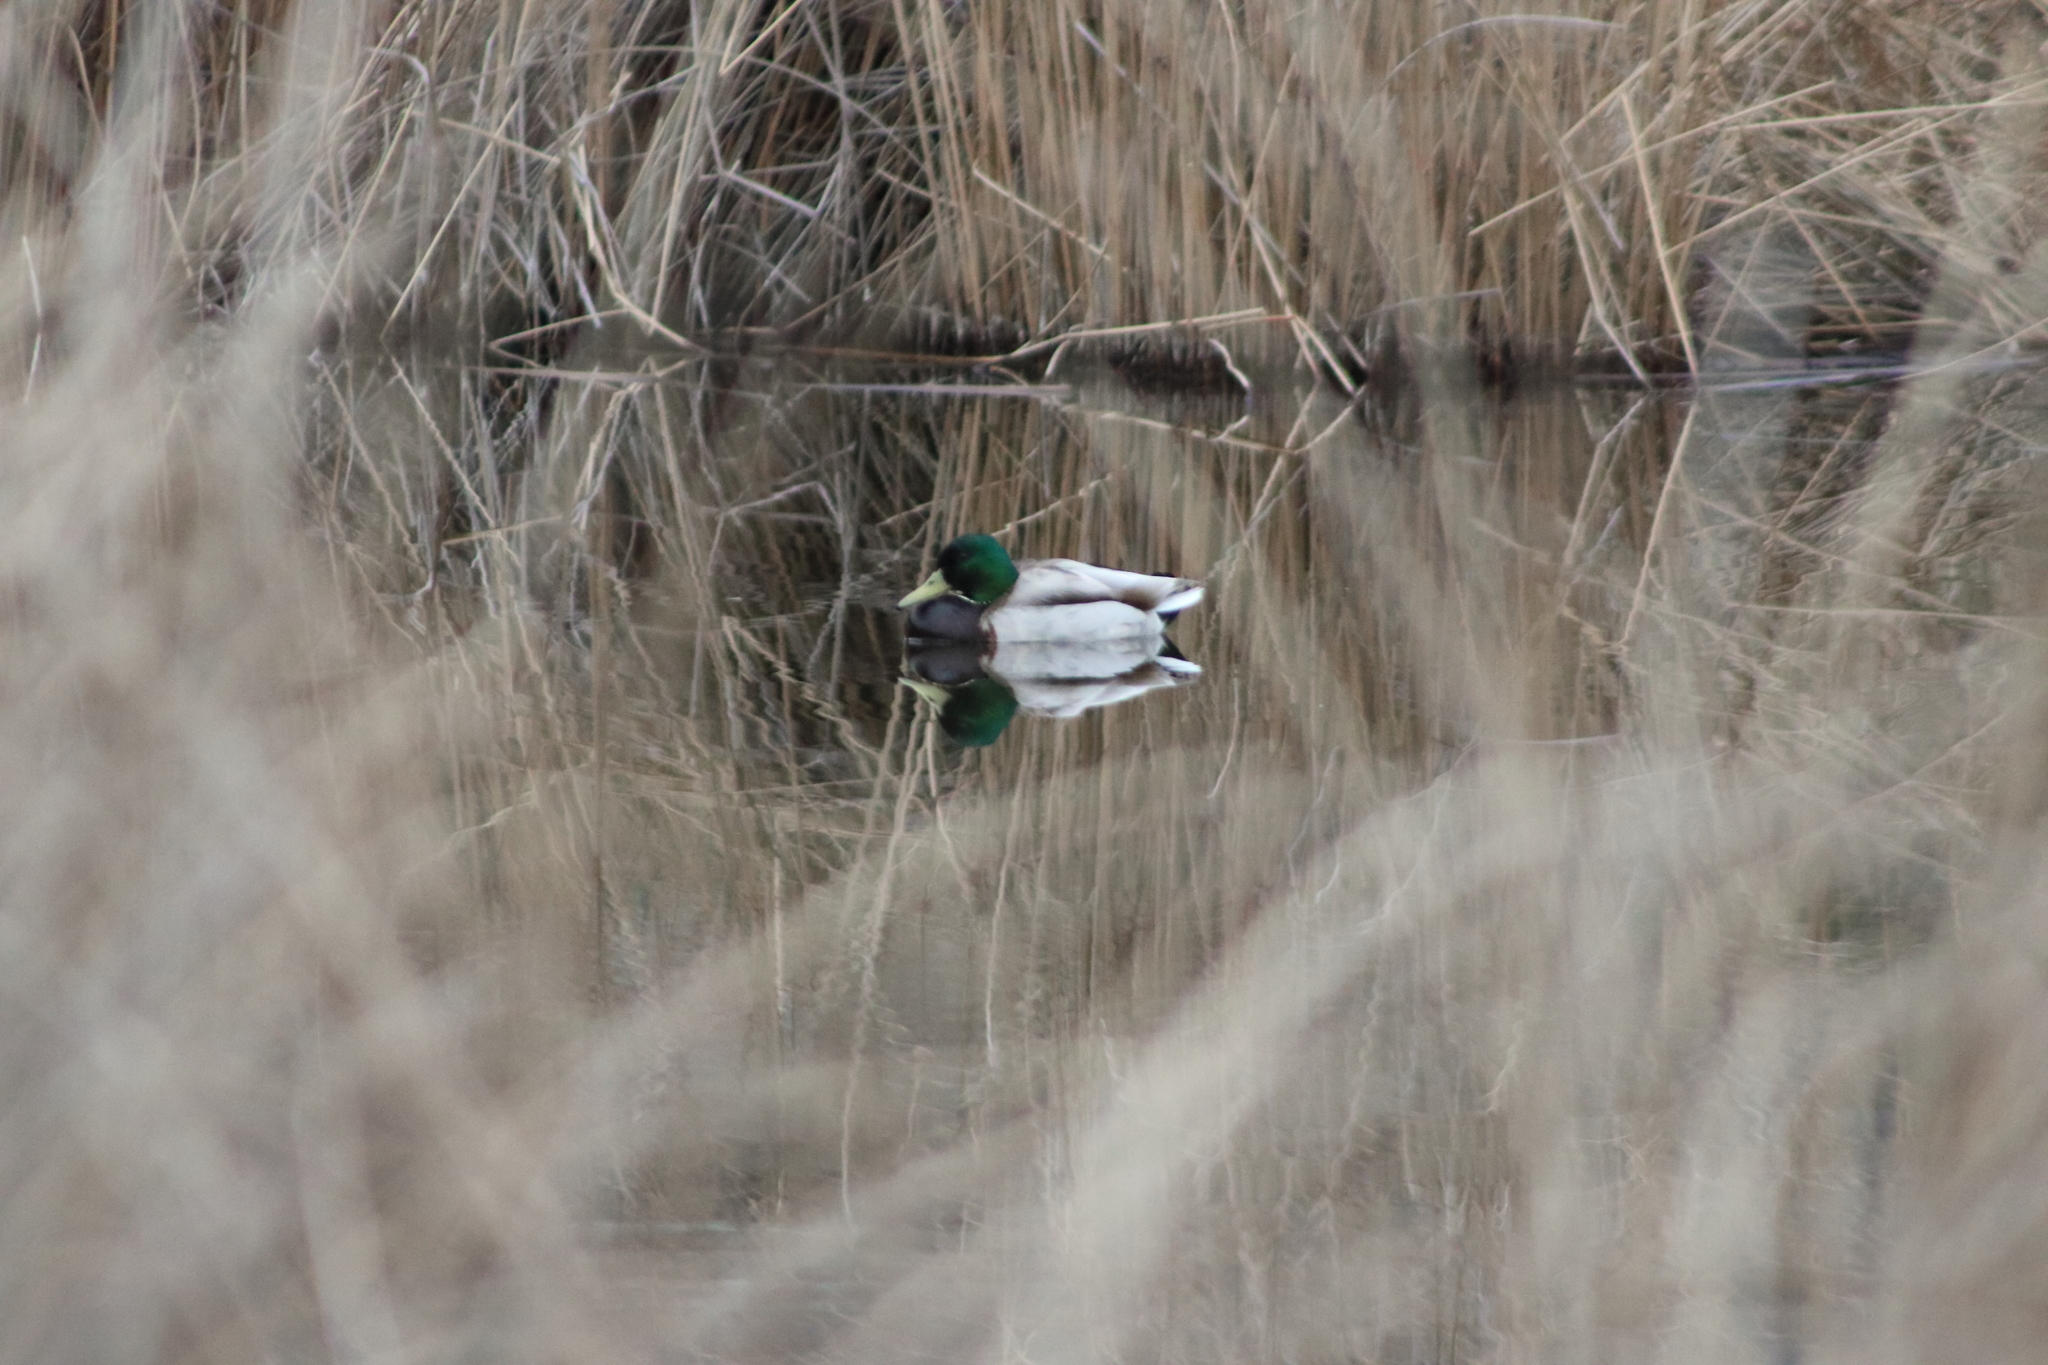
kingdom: Animalia
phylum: Chordata
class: Aves
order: Anseriformes
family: Anatidae
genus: Anas
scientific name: Anas platyrhynchos
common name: Mallard
